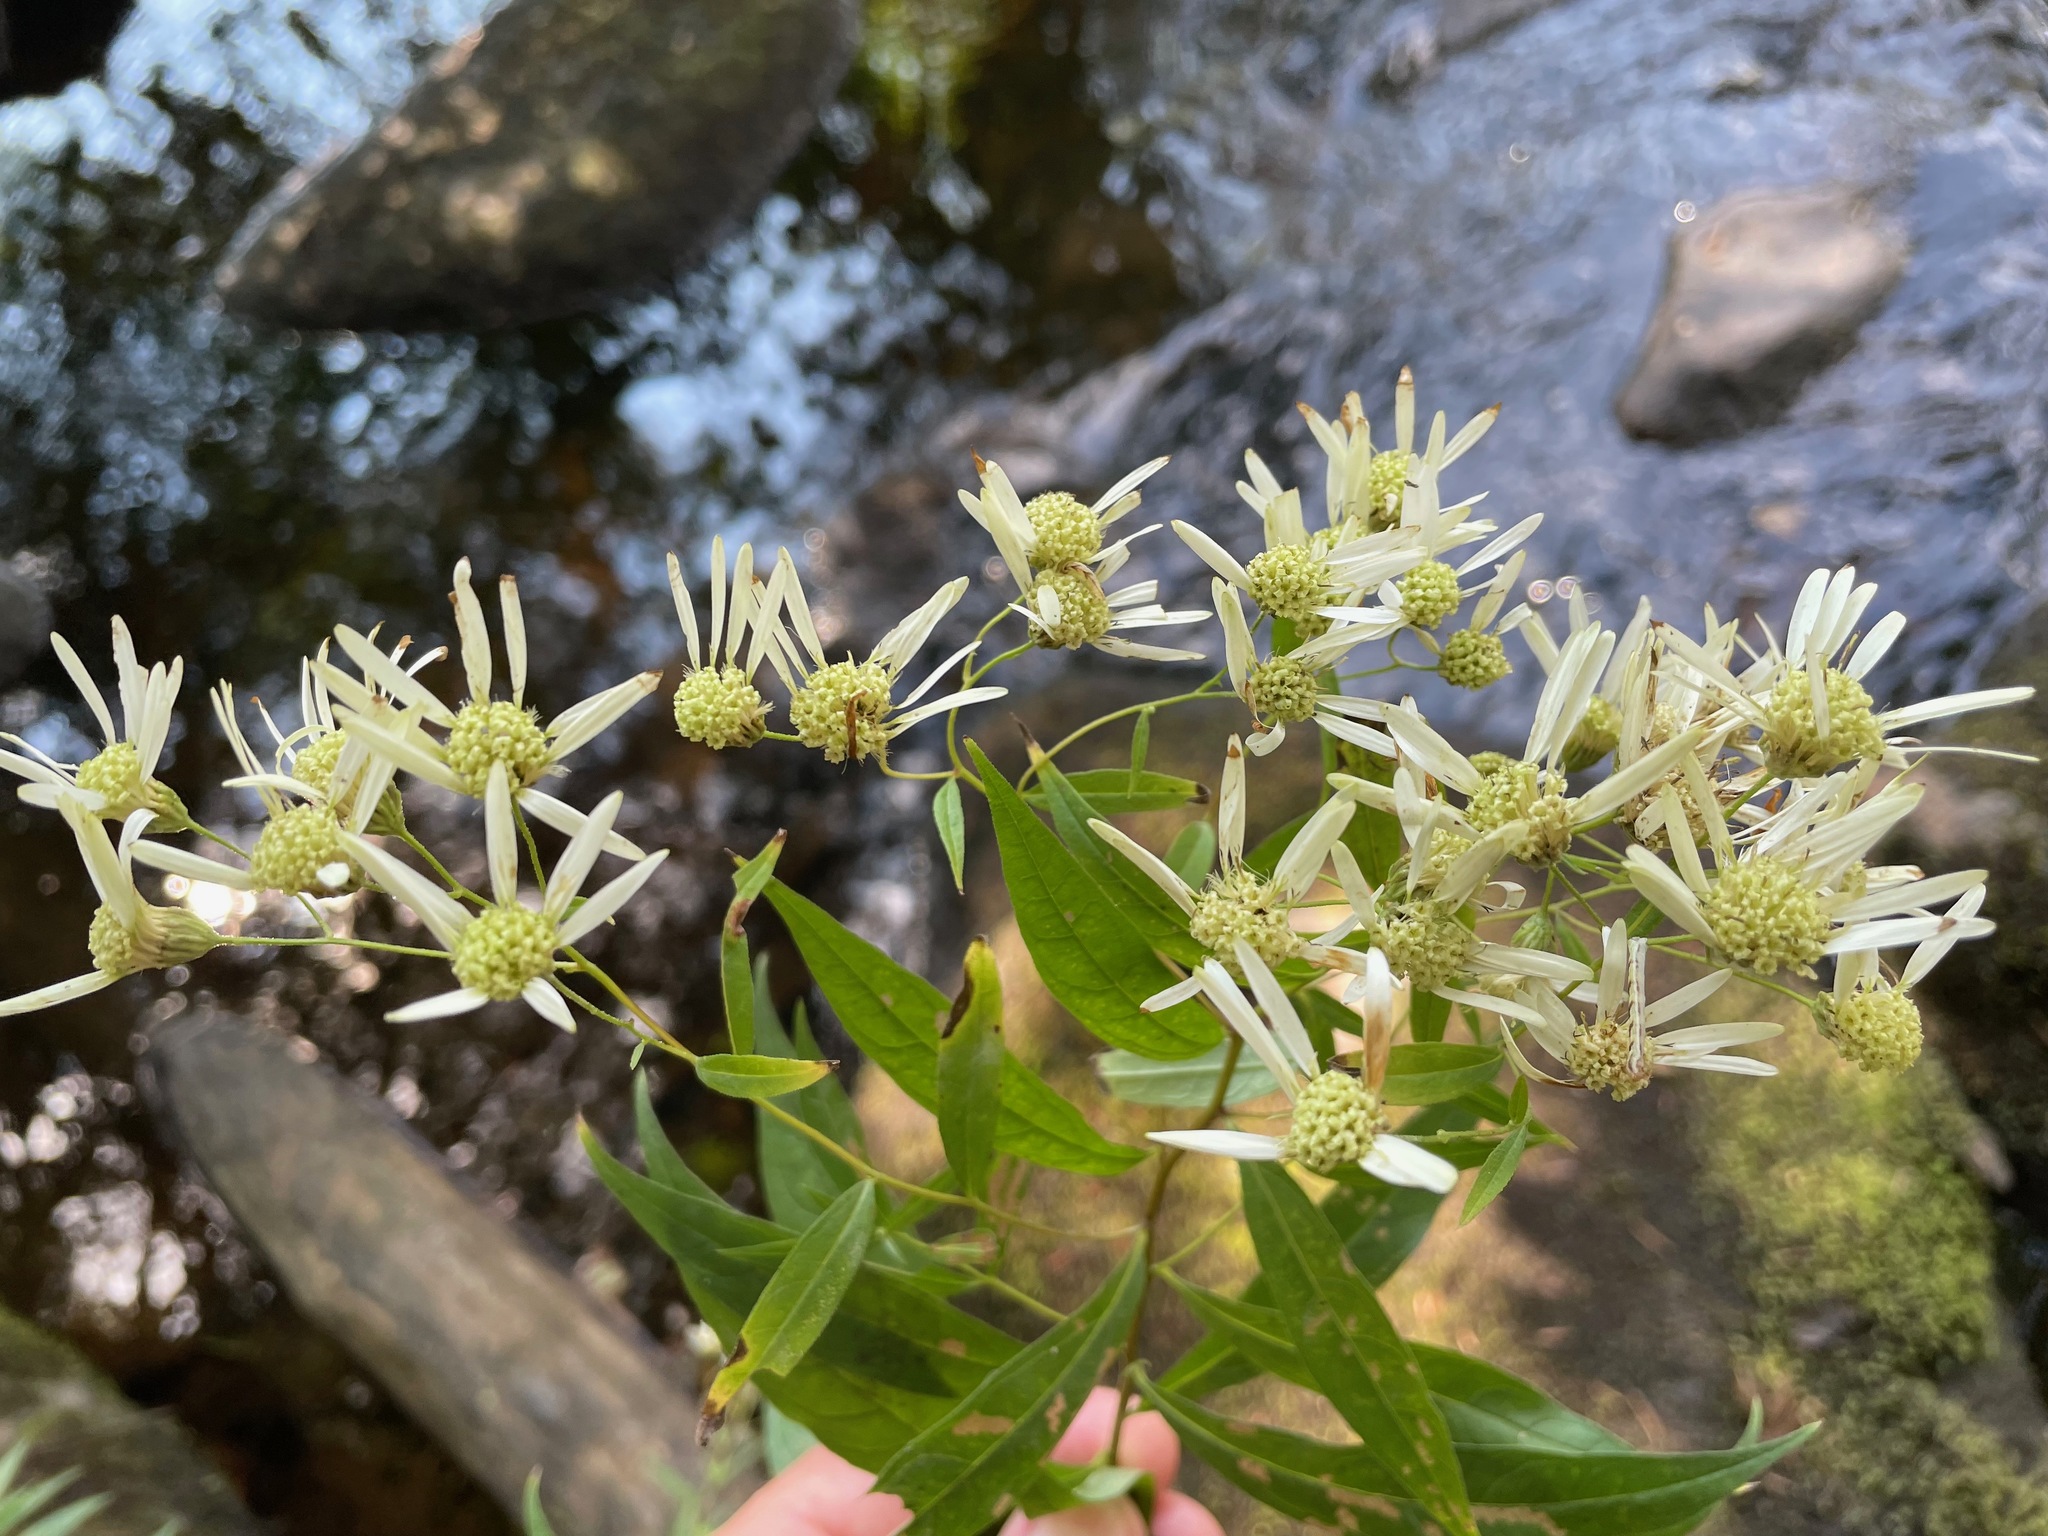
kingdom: Plantae
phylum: Tracheophyta
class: Magnoliopsida
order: Asterales
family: Asteraceae
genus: Doellingeria
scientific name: Doellingeria umbellata
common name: Flat-top white aster
